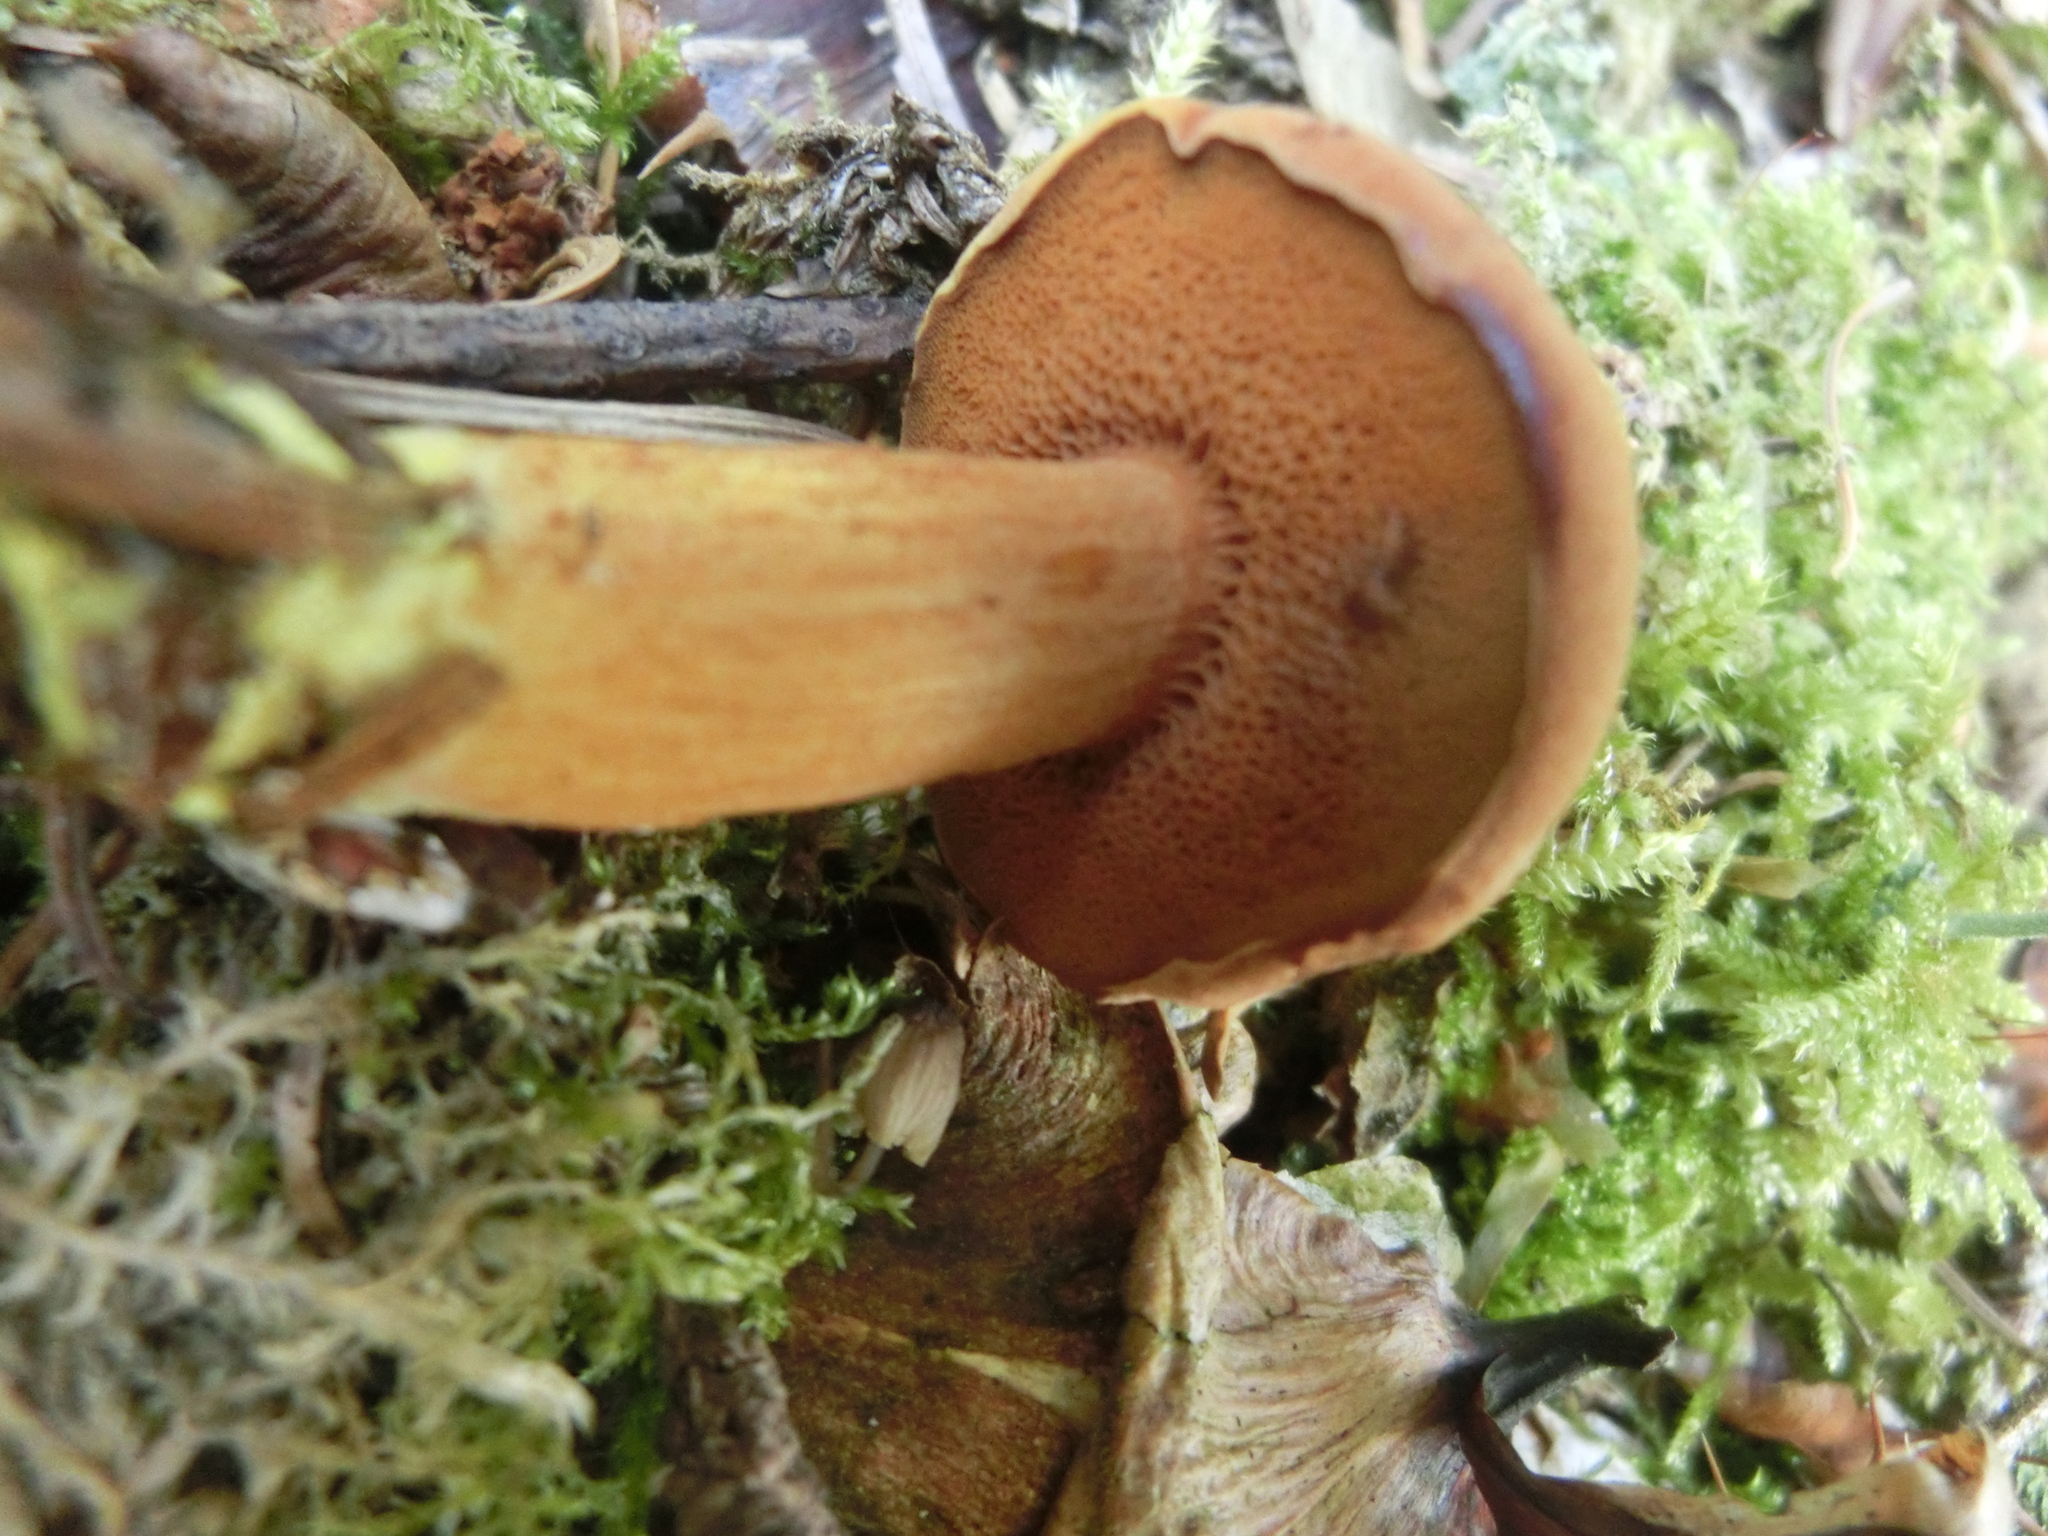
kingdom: Fungi
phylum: Basidiomycota
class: Agaricomycetes
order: Boletales
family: Boletaceae
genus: Chalciporus
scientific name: Chalciporus piperatus
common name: Peppery bolete
